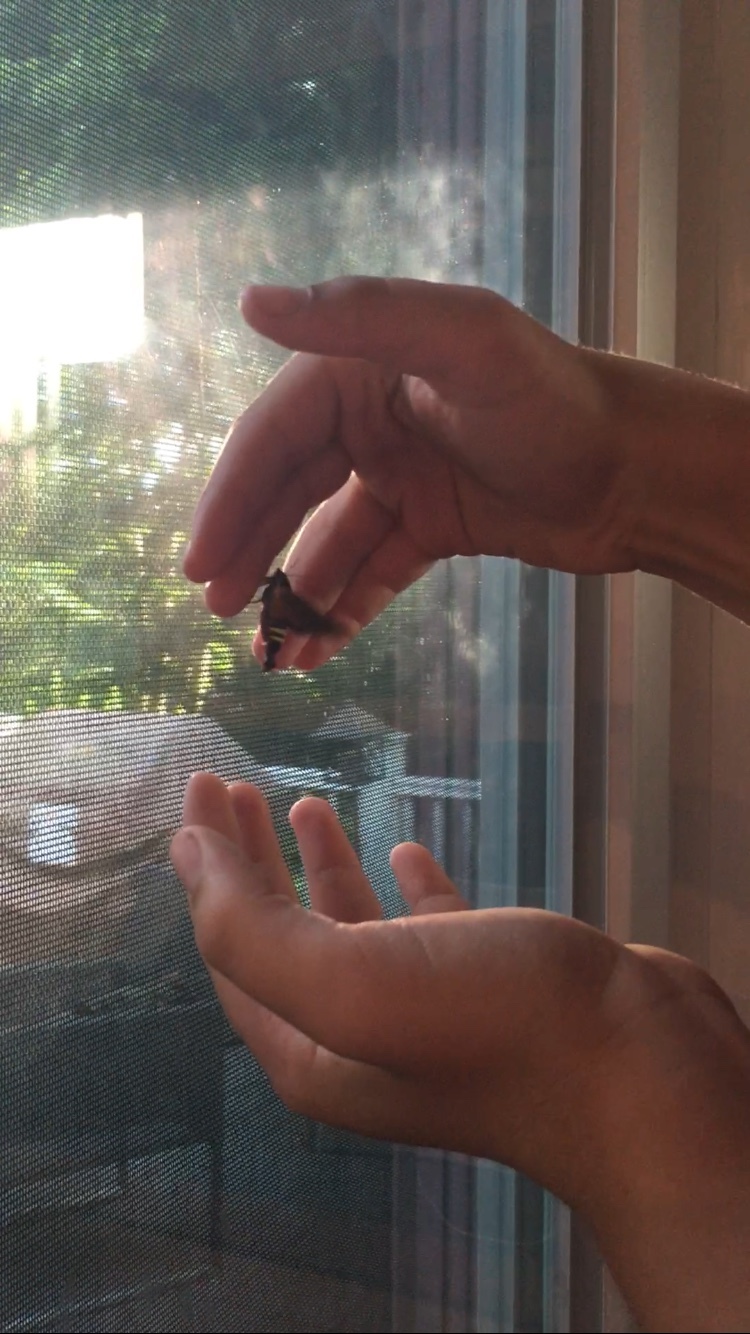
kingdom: Animalia
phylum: Arthropoda
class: Insecta
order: Lepidoptera
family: Sphingidae
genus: Amphion
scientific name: Amphion floridensis
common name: Nessus sphinx
